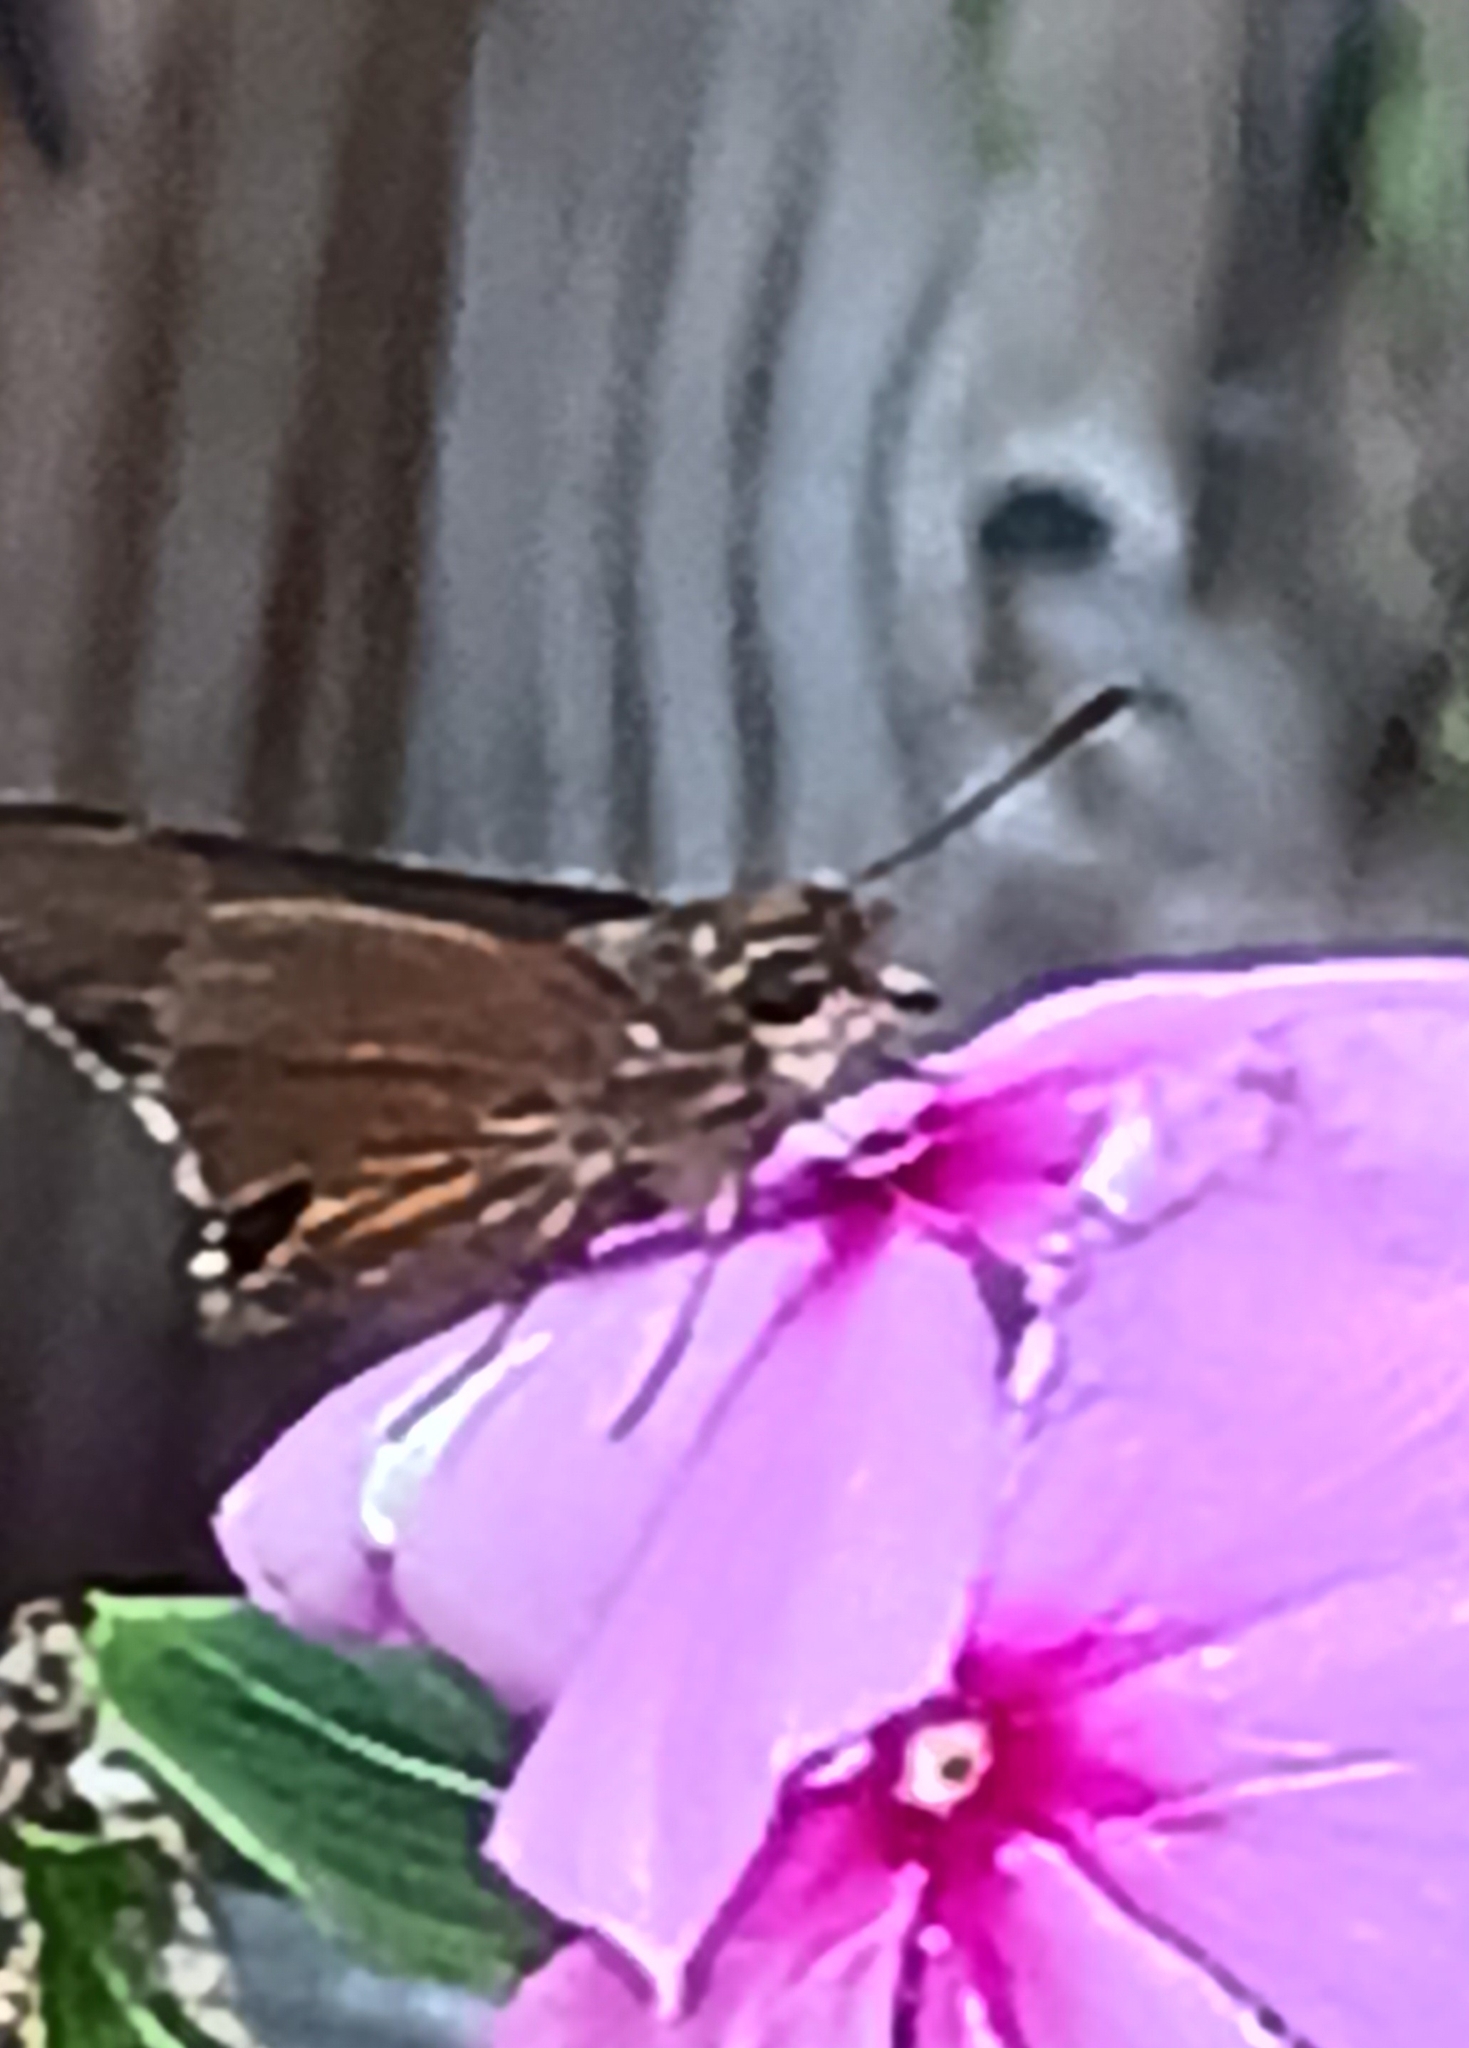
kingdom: Animalia
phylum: Arthropoda
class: Insecta
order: Lepidoptera
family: Hesperiidae
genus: Asbolis
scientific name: Asbolis capucinus
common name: Monk skipper
